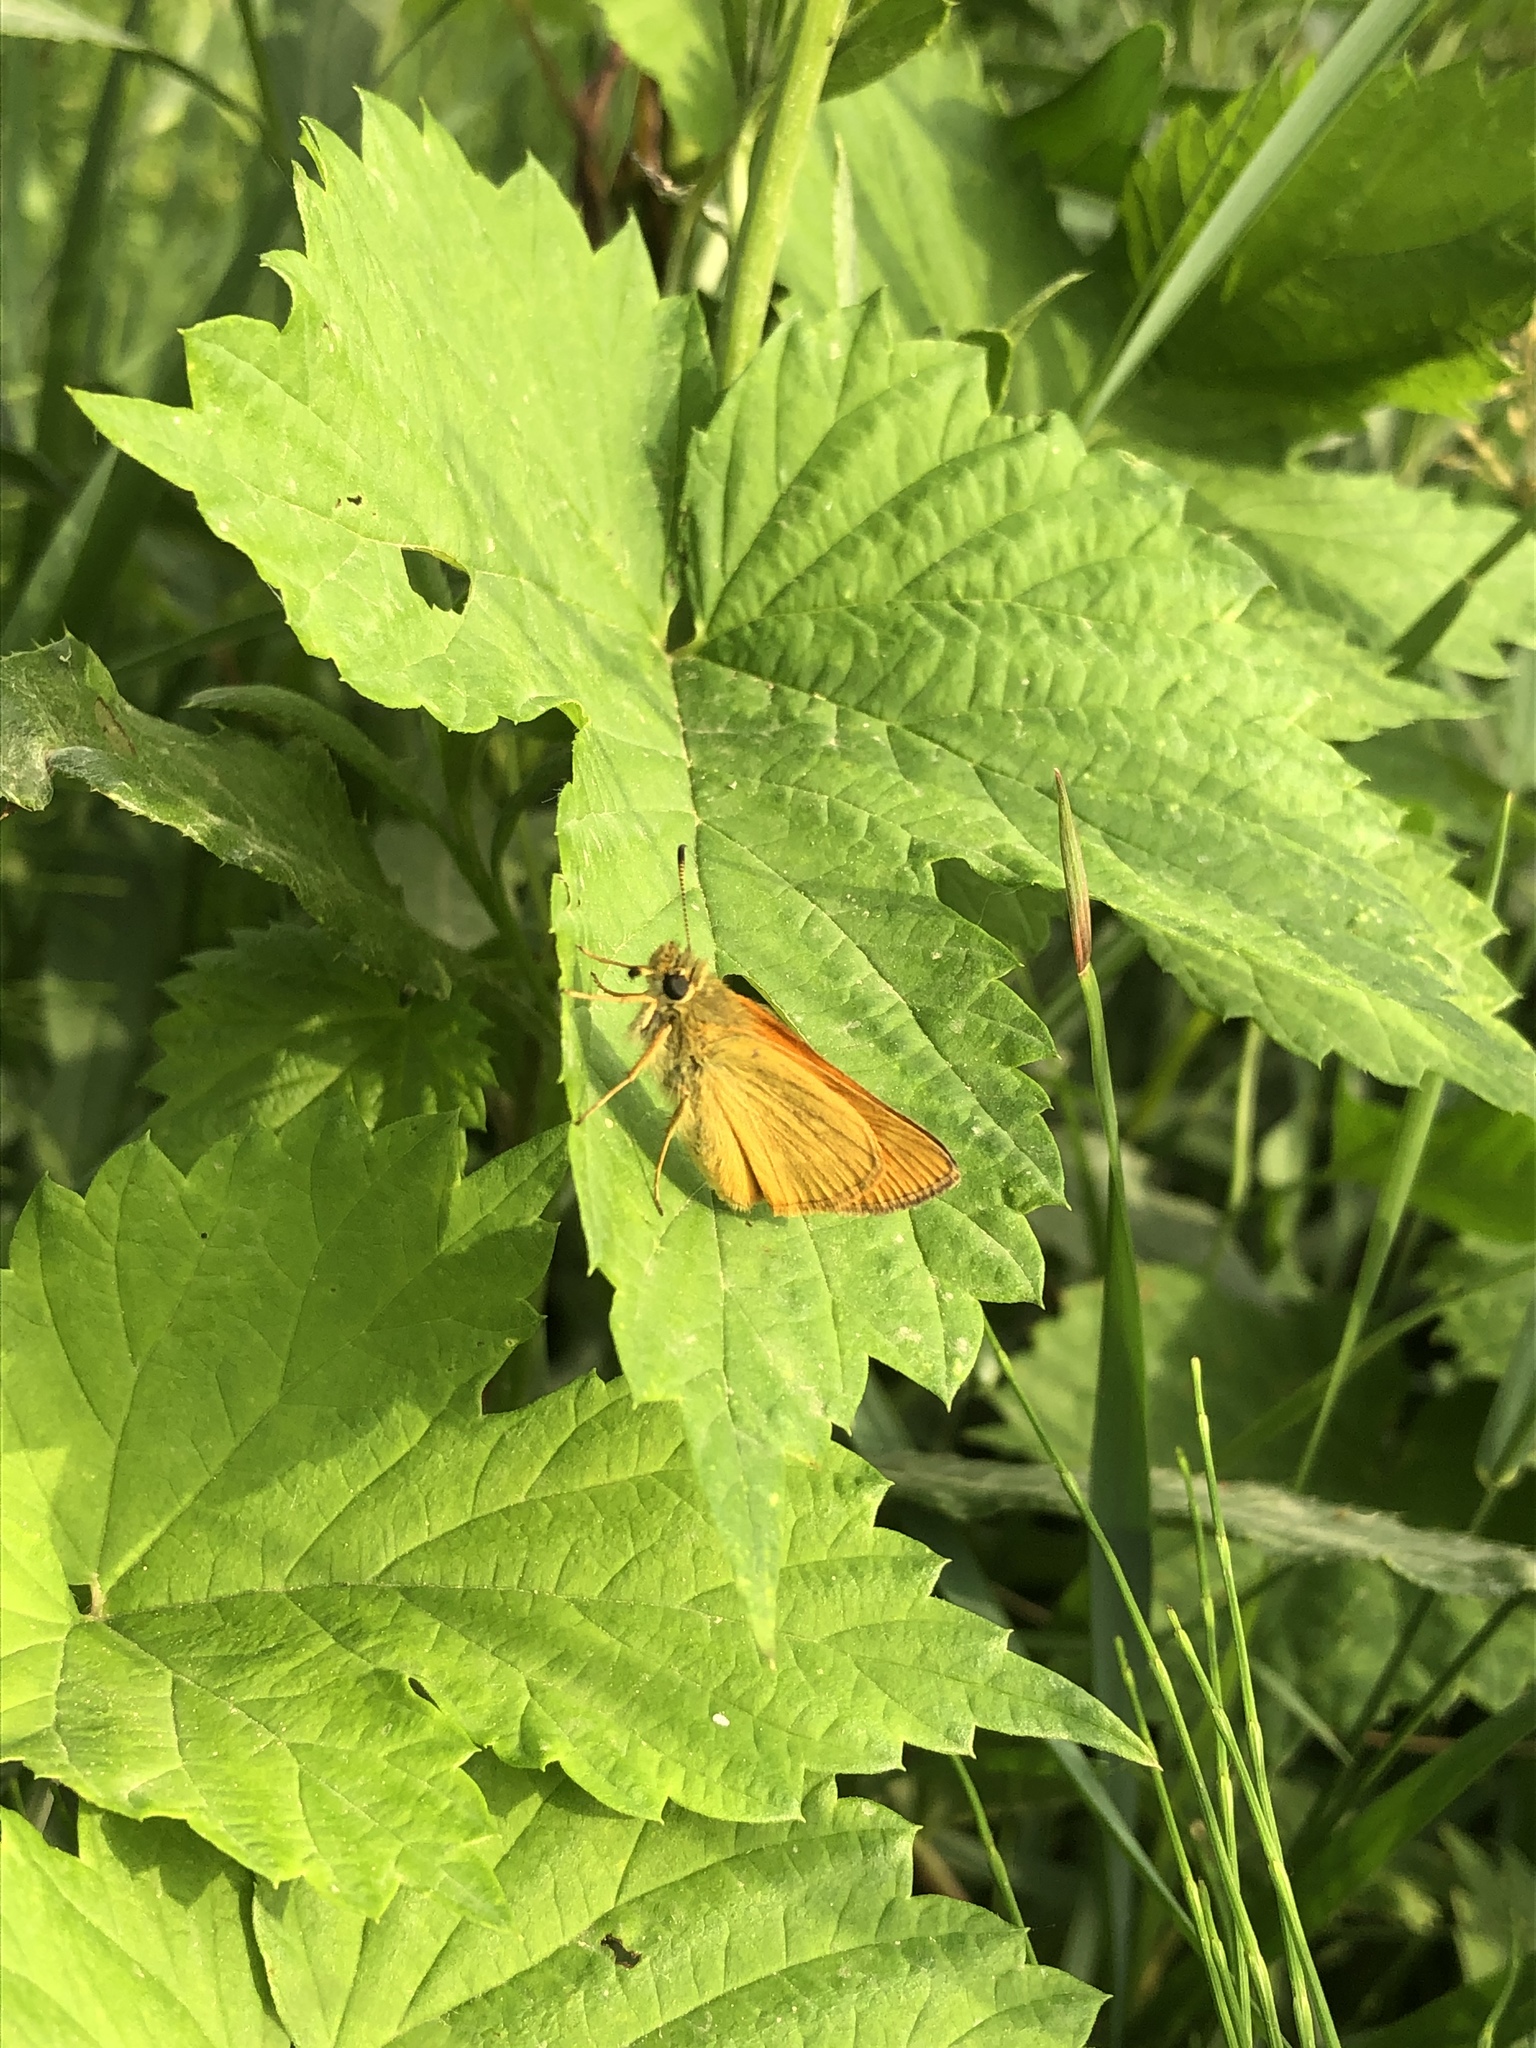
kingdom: Animalia
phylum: Arthropoda
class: Insecta
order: Lepidoptera
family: Hesperiidae
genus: Ochlodes
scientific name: Ochlodes venata
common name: Large skipper
